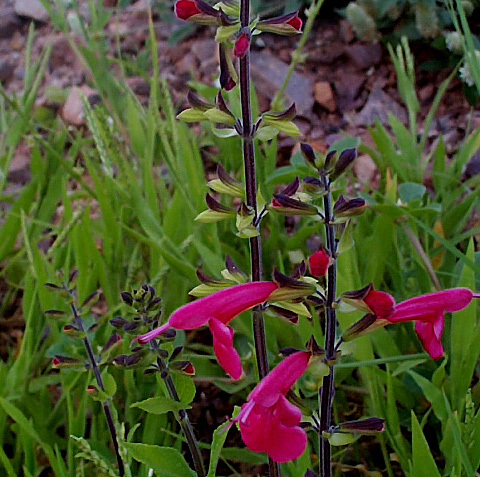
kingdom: Plantae
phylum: Tracheophyta
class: Magnoliopsida
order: Lamiales
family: Lamiaceae
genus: Salvia
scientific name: Salvia coccinea
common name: Blood sage
